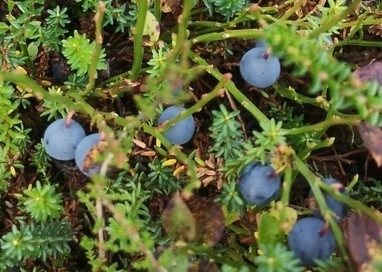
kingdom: Plantae
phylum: Tracheophyta
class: Magnoliopsida
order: Ericales
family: Ericaceae
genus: Vaccinium
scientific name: Vaccinium myrtillus
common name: Bilberry
